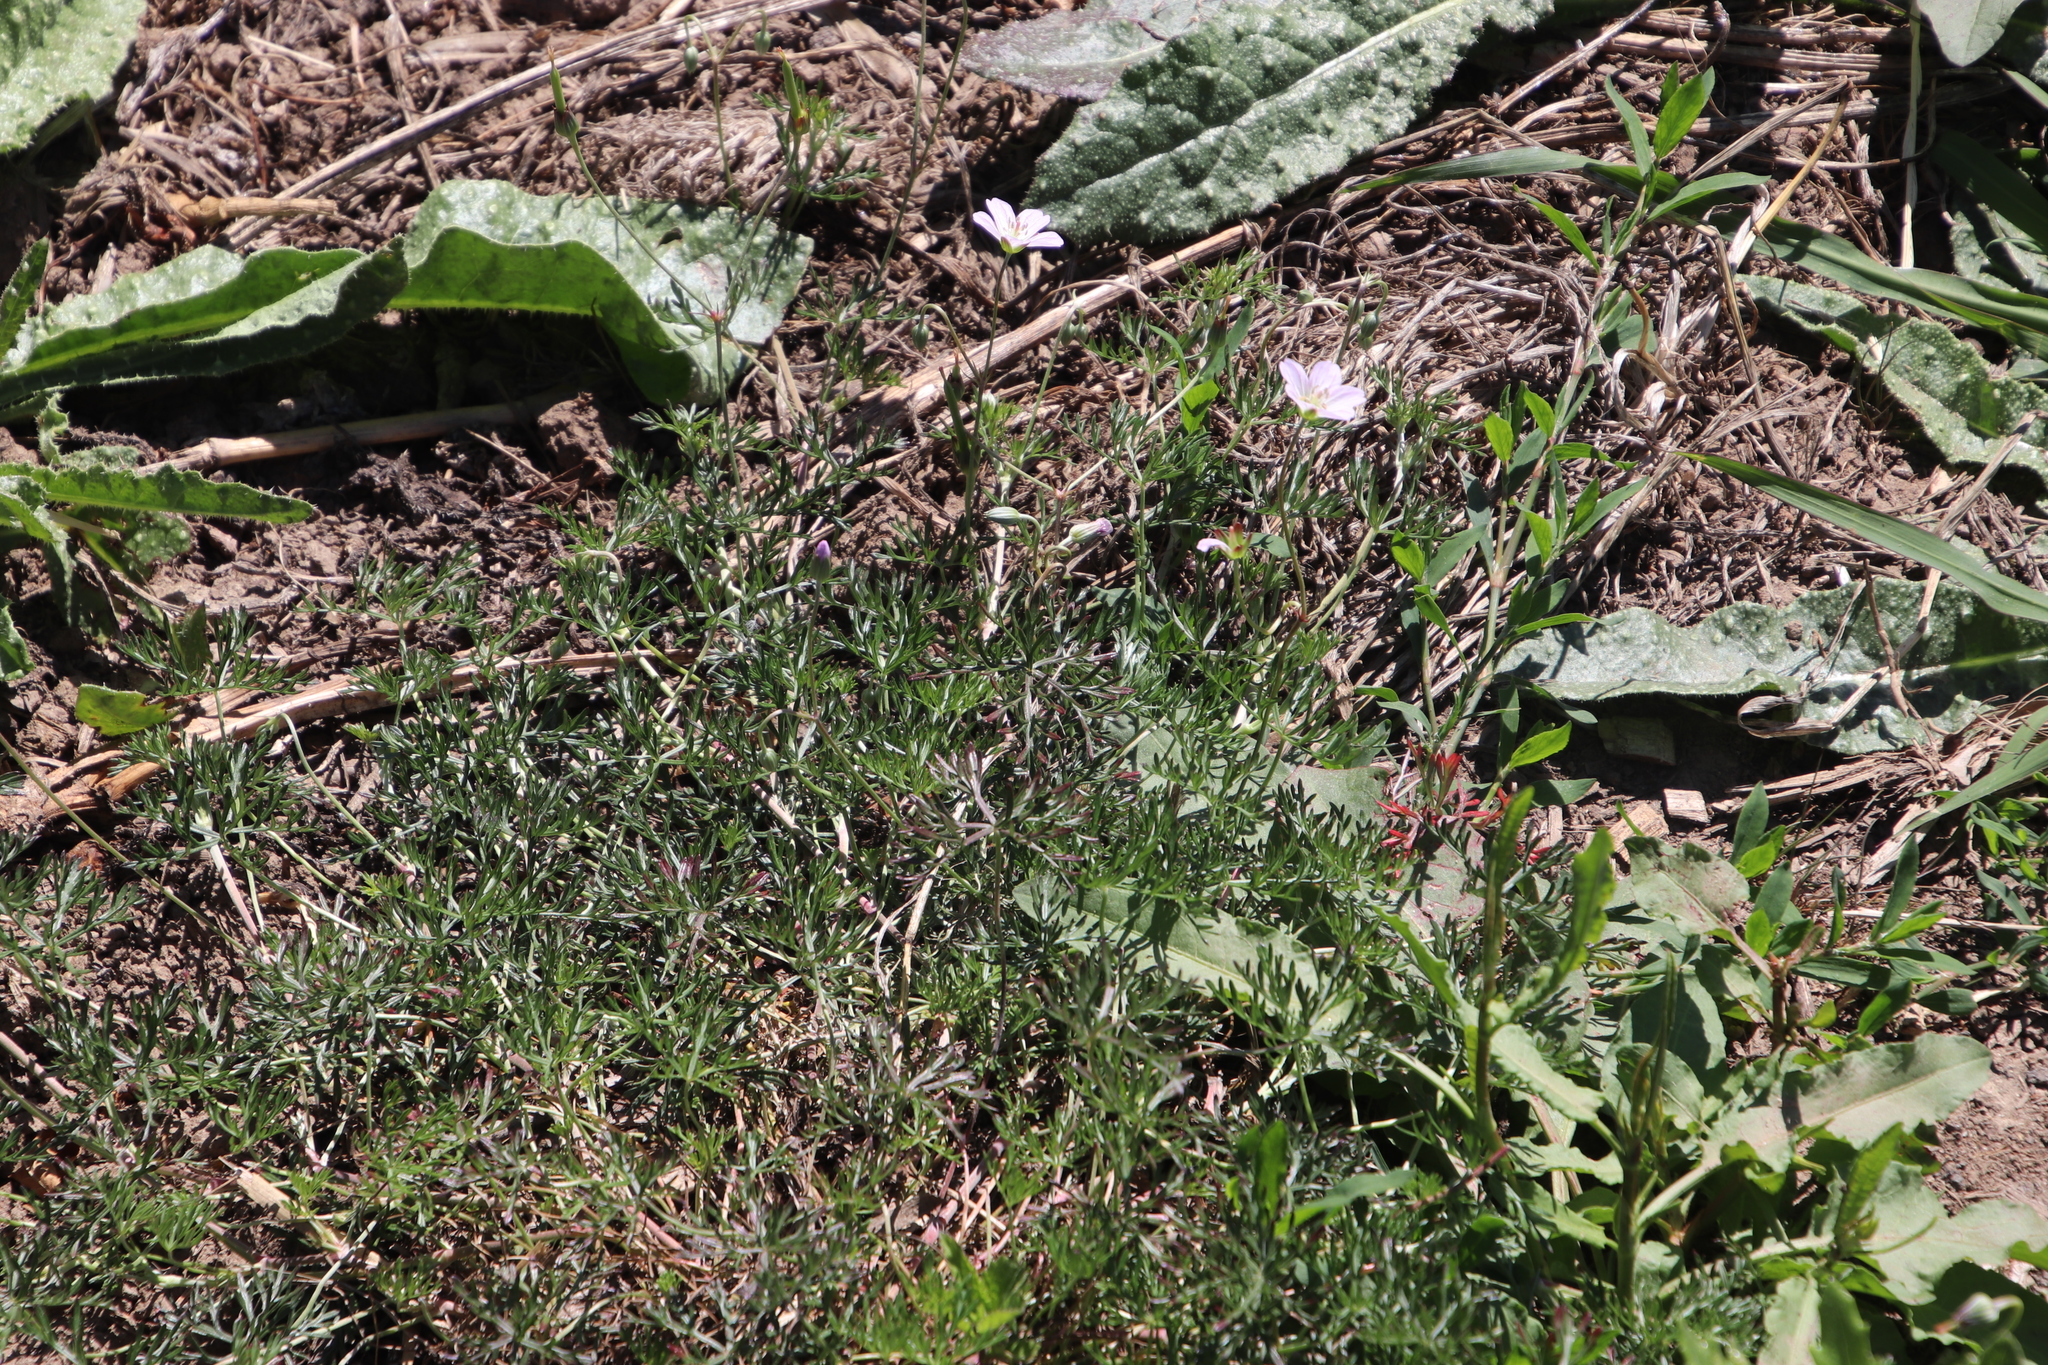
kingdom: Plantae
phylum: Tracheophyta
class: Magnoliopsida
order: Geraniales
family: Geraniaceae
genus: Geranium
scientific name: Geranium incanum
